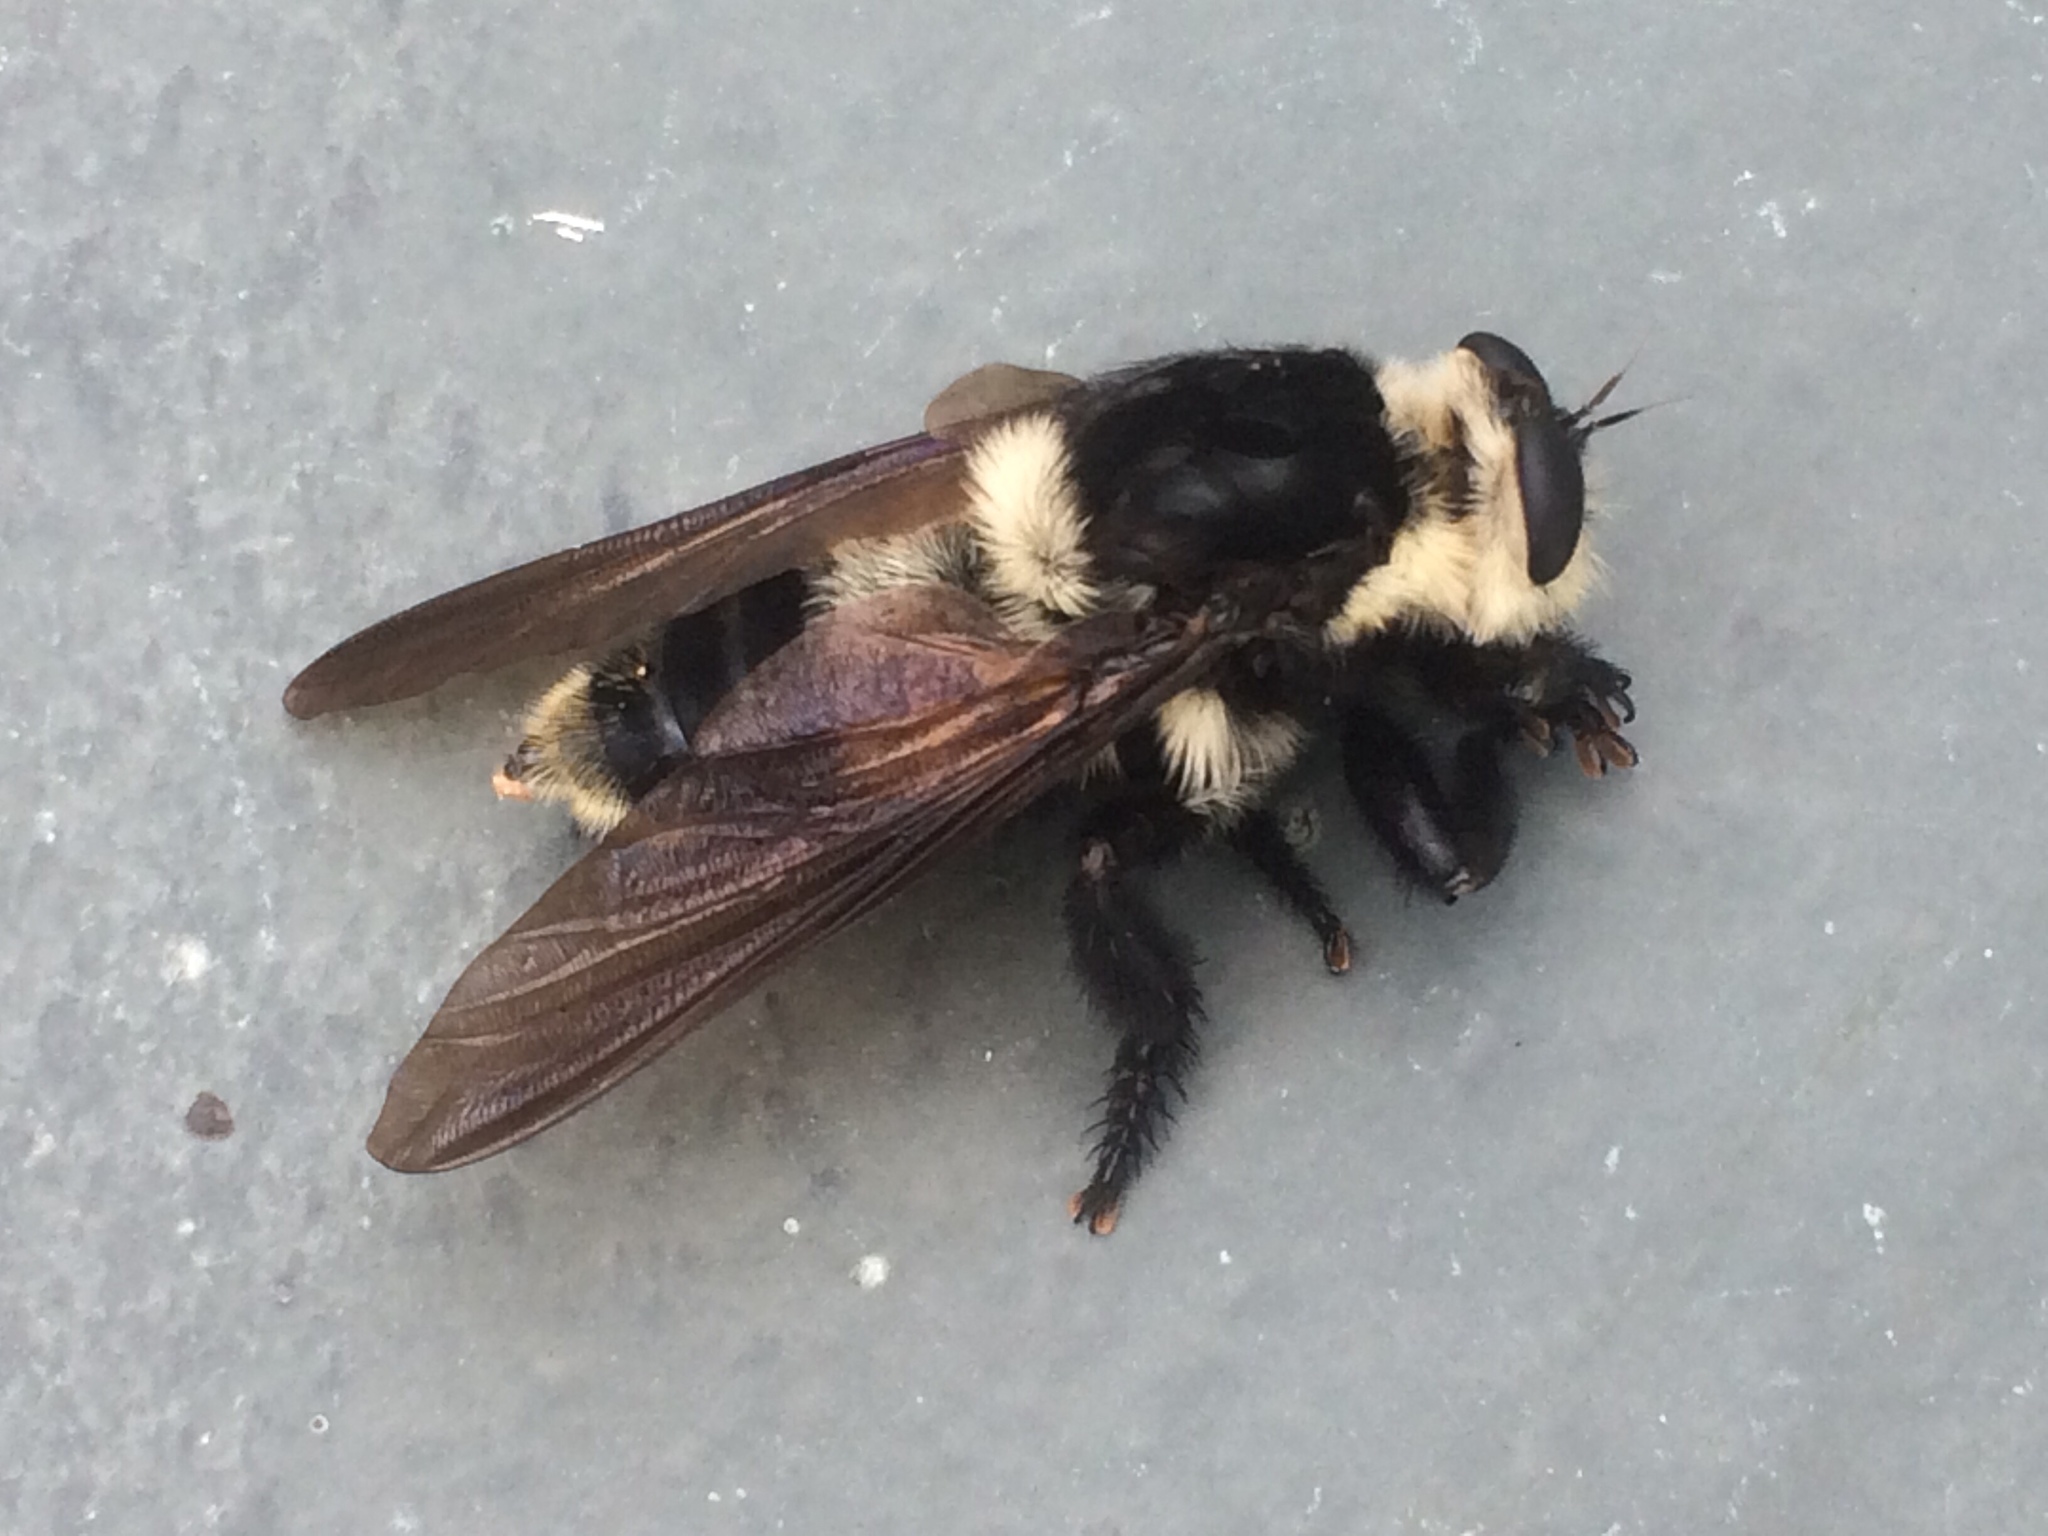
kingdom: Animalia
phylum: Arthropoda
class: Insecta
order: Diptera
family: Asilidae
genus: Mallophora
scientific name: Mallophora bomboides
